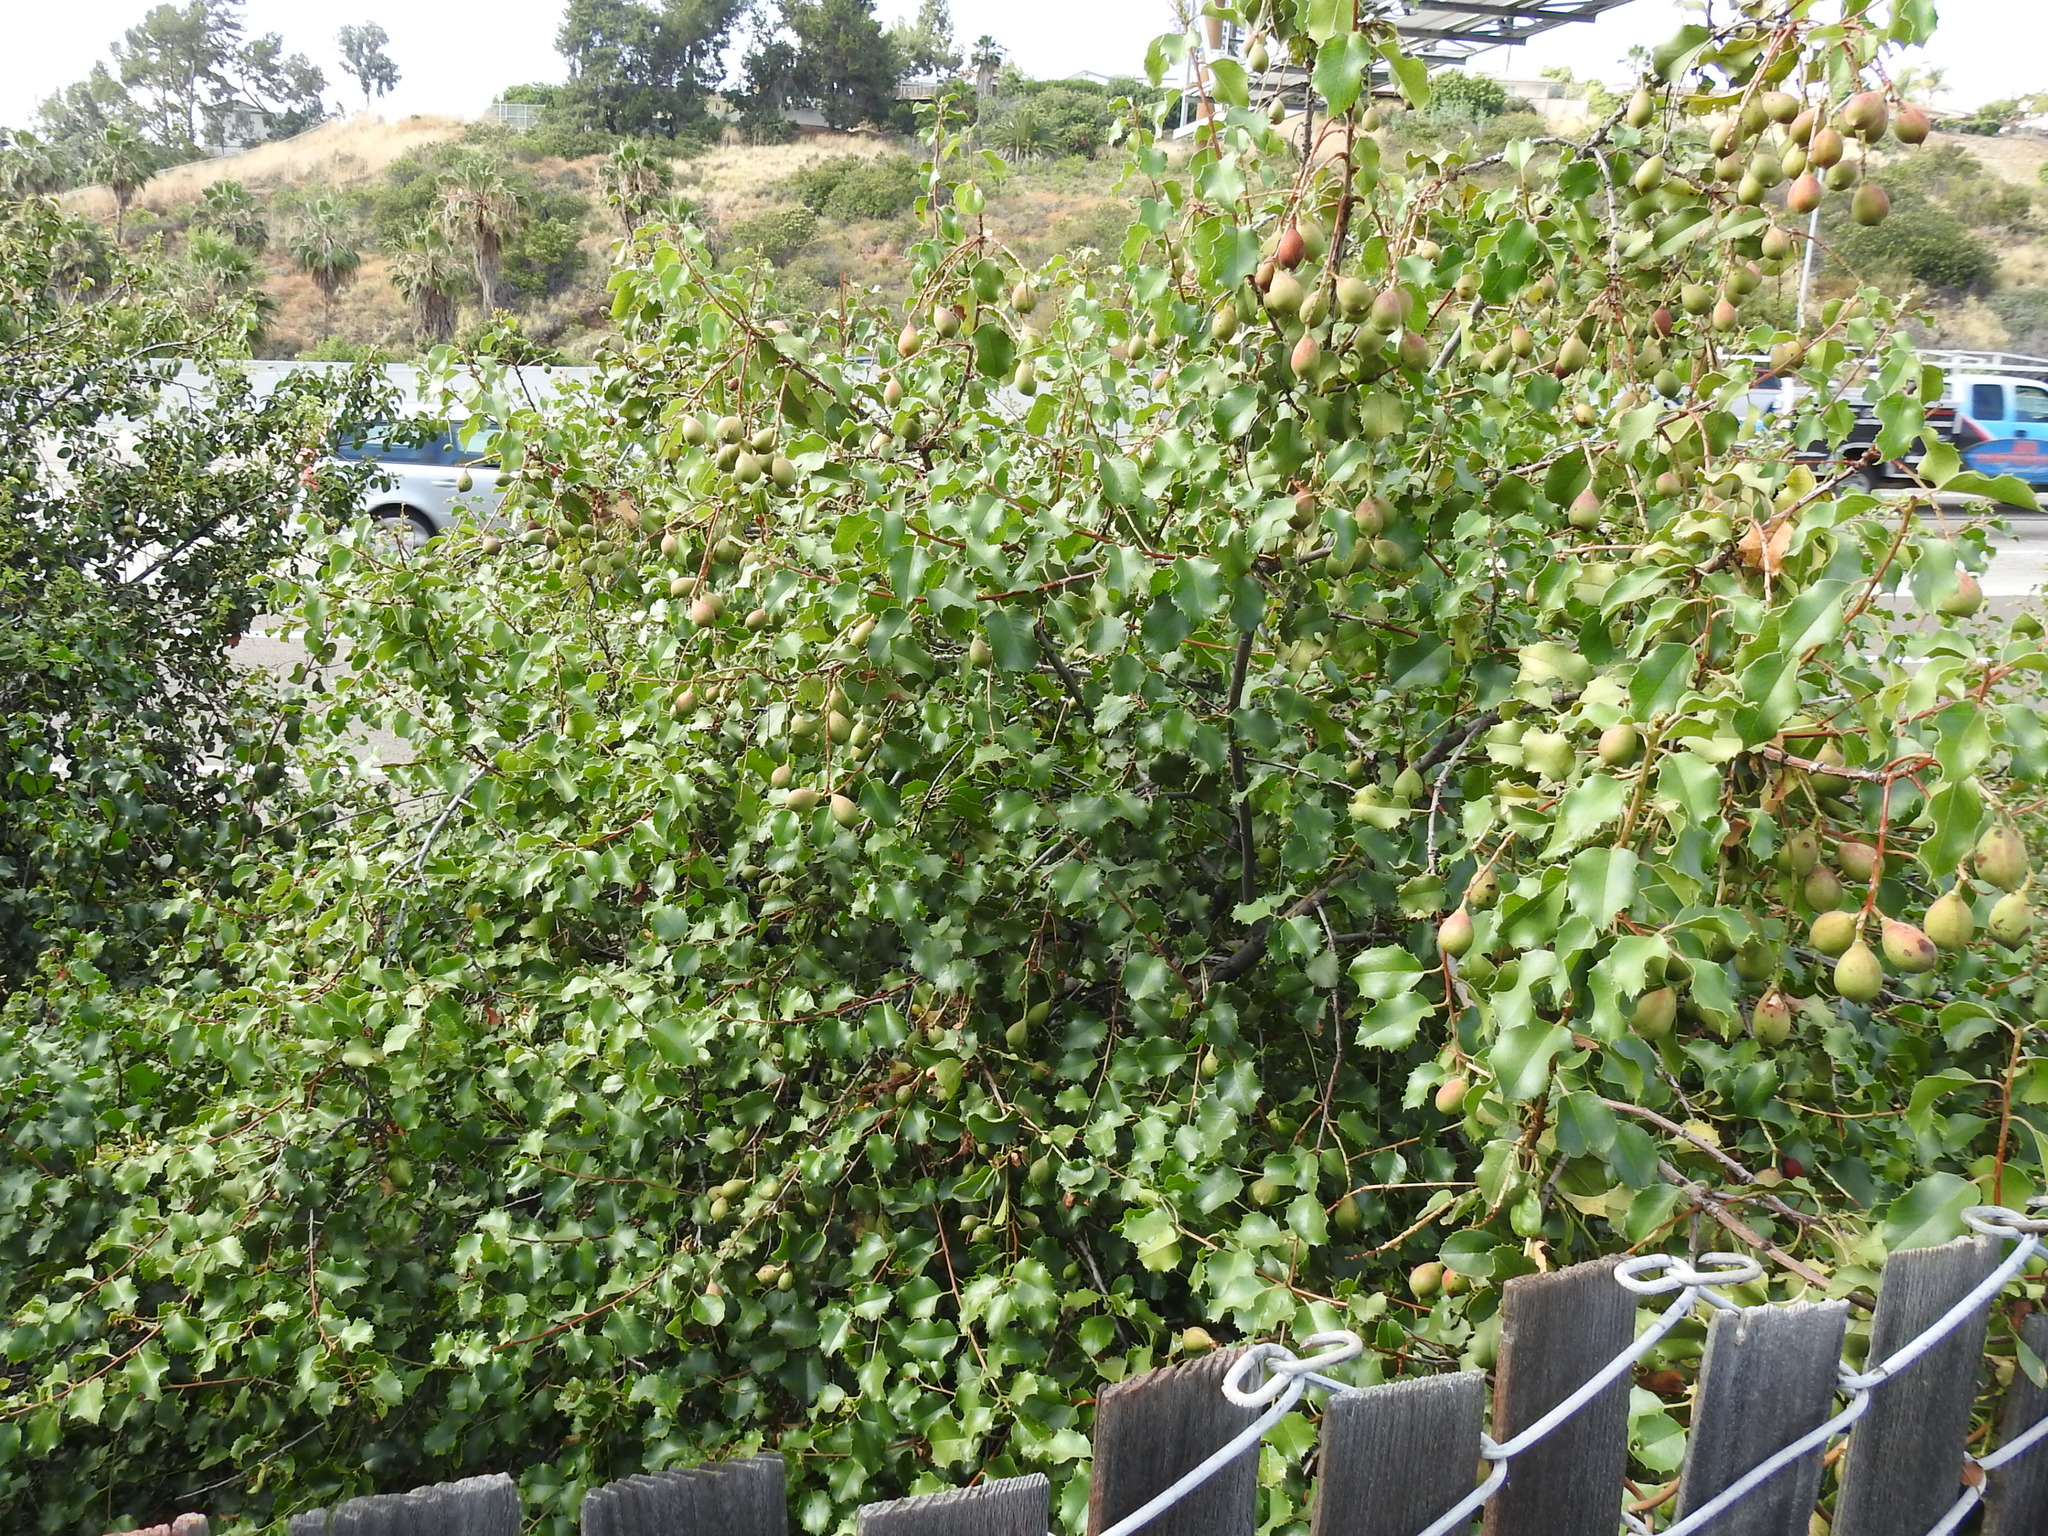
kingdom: Plantae
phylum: Tracheophyta
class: Magnoliopsida
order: Rosales
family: Rosaceae
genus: Prunus
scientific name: Prunus ilicifolia
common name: Hollyleaf cherry
